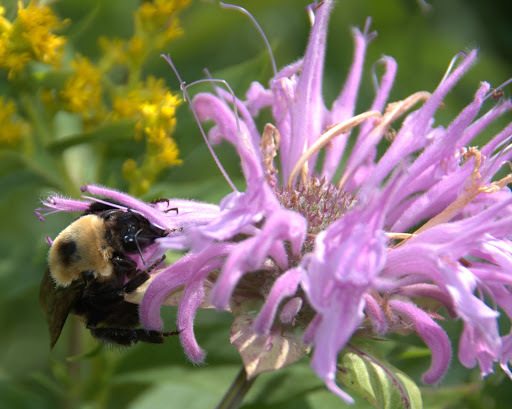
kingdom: Animalia
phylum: Arthropoda
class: Insecta
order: Hymenoptera
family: Apidae
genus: Bombus
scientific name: Bombus nevadensis
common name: Nevada bumble bee
